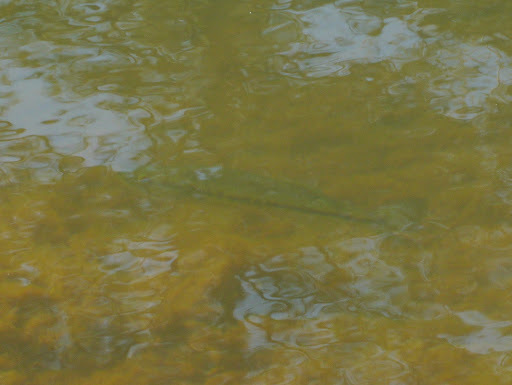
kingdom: Animalia
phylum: Chordata
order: Perciformes
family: Centrarchidae
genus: Micropterus
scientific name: Micropterus
